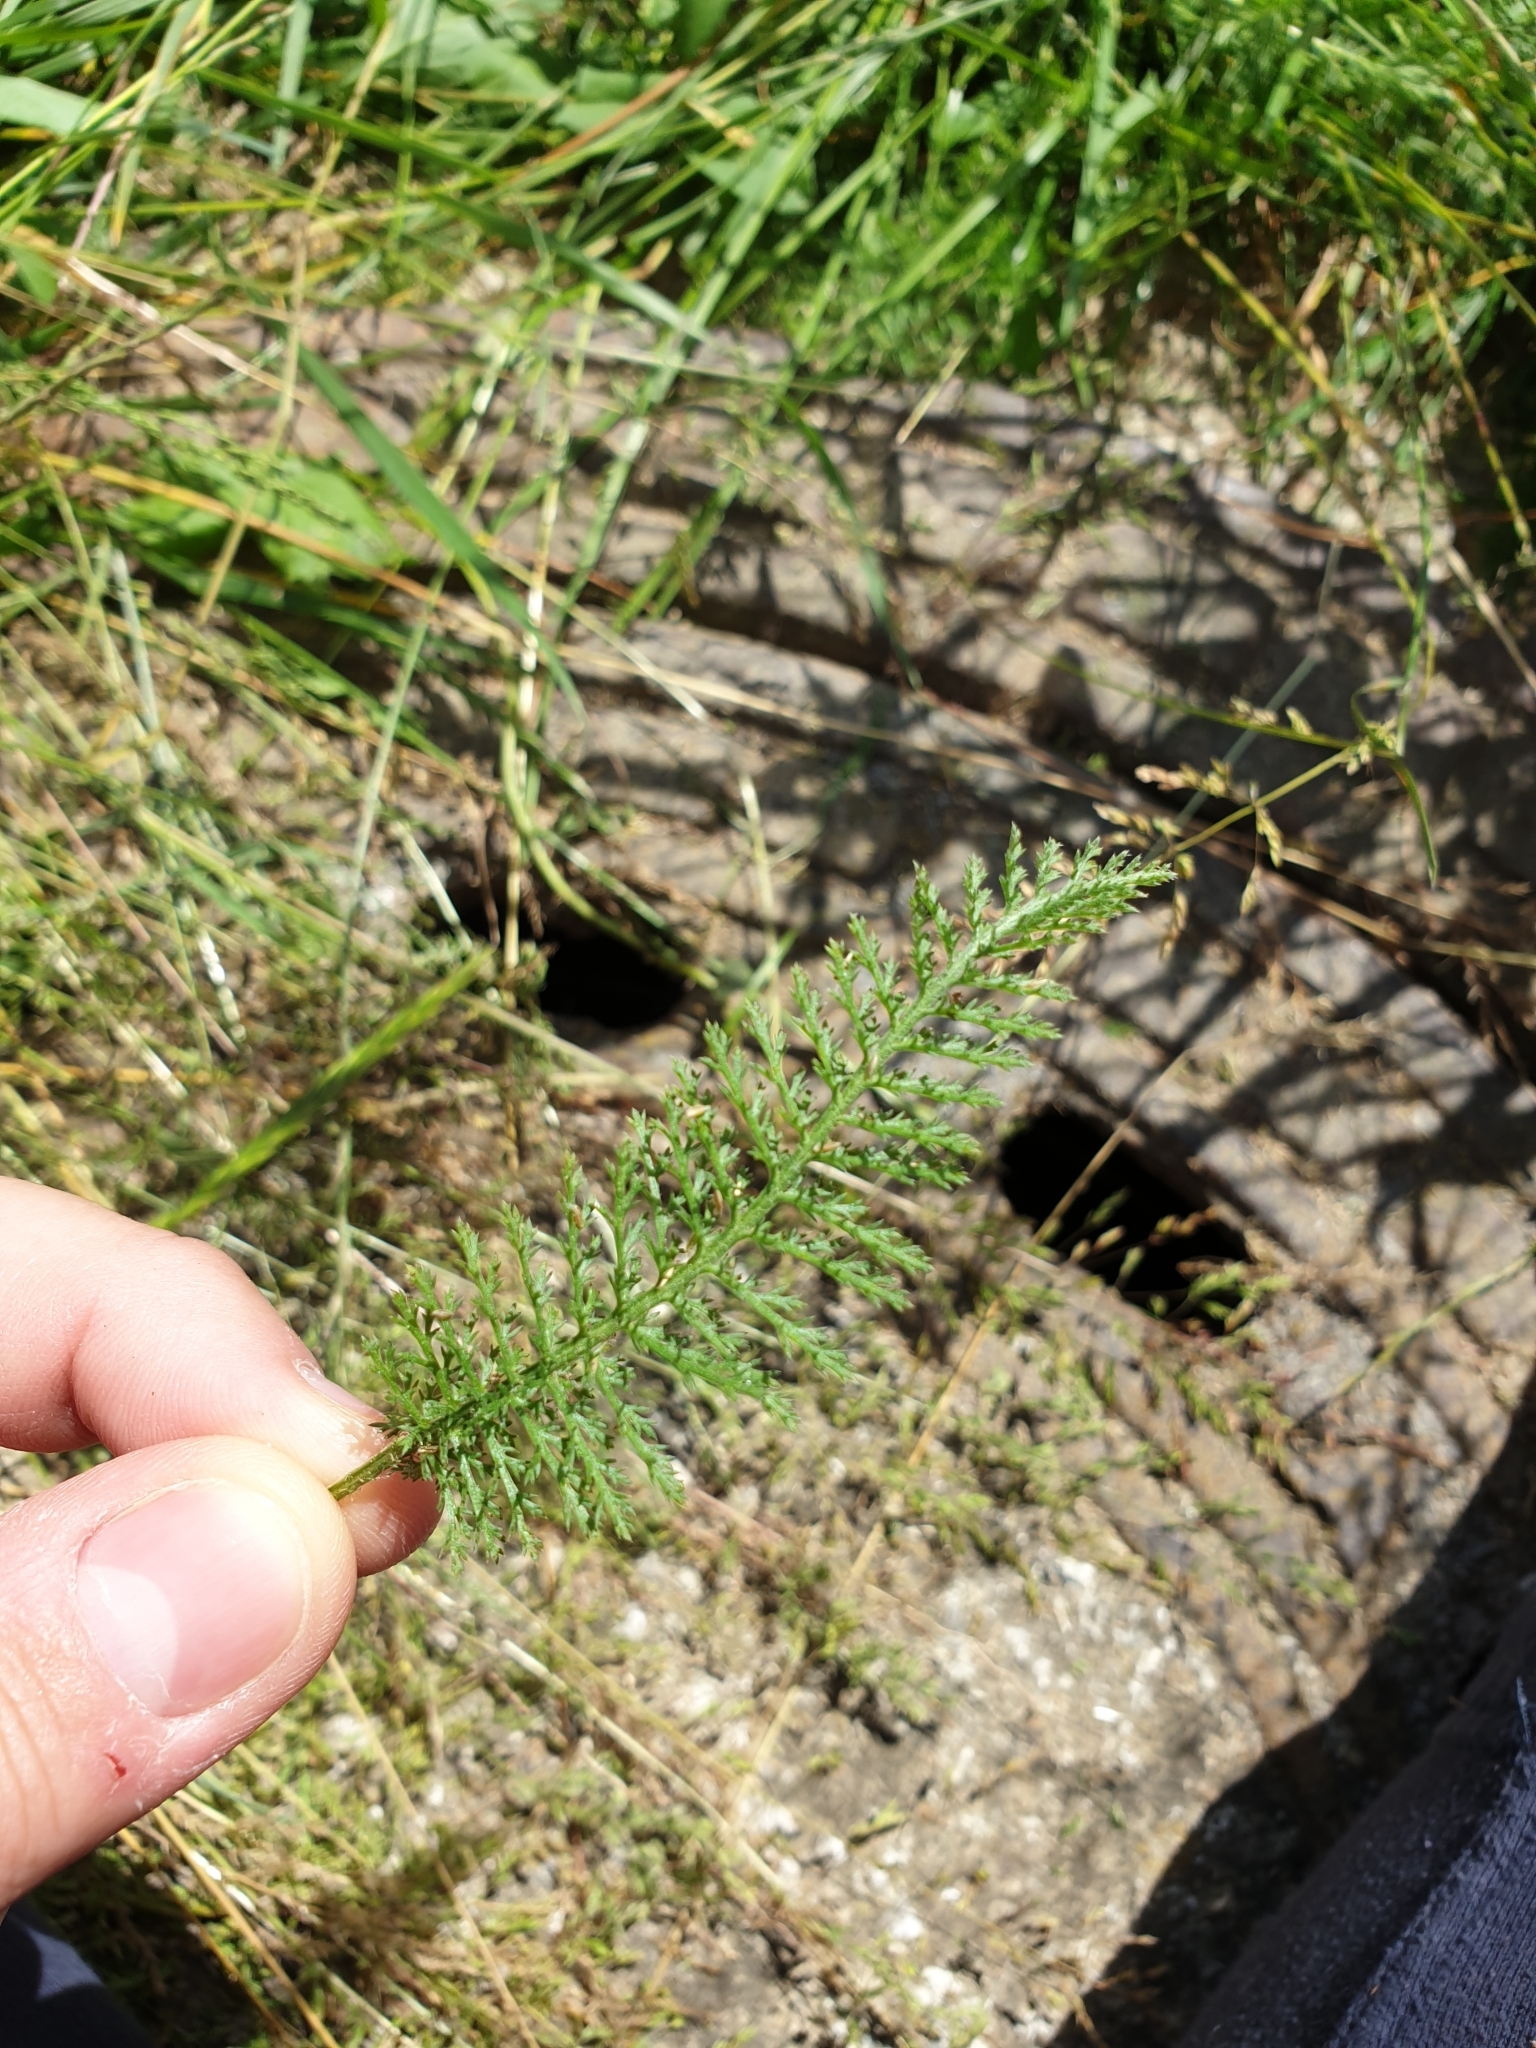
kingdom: Plantae
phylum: Tracheophyta
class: Magnoliopsida
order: Asterales
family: Asteraceae
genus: Achillea
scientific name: Achillea millefolium
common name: Yarrow
